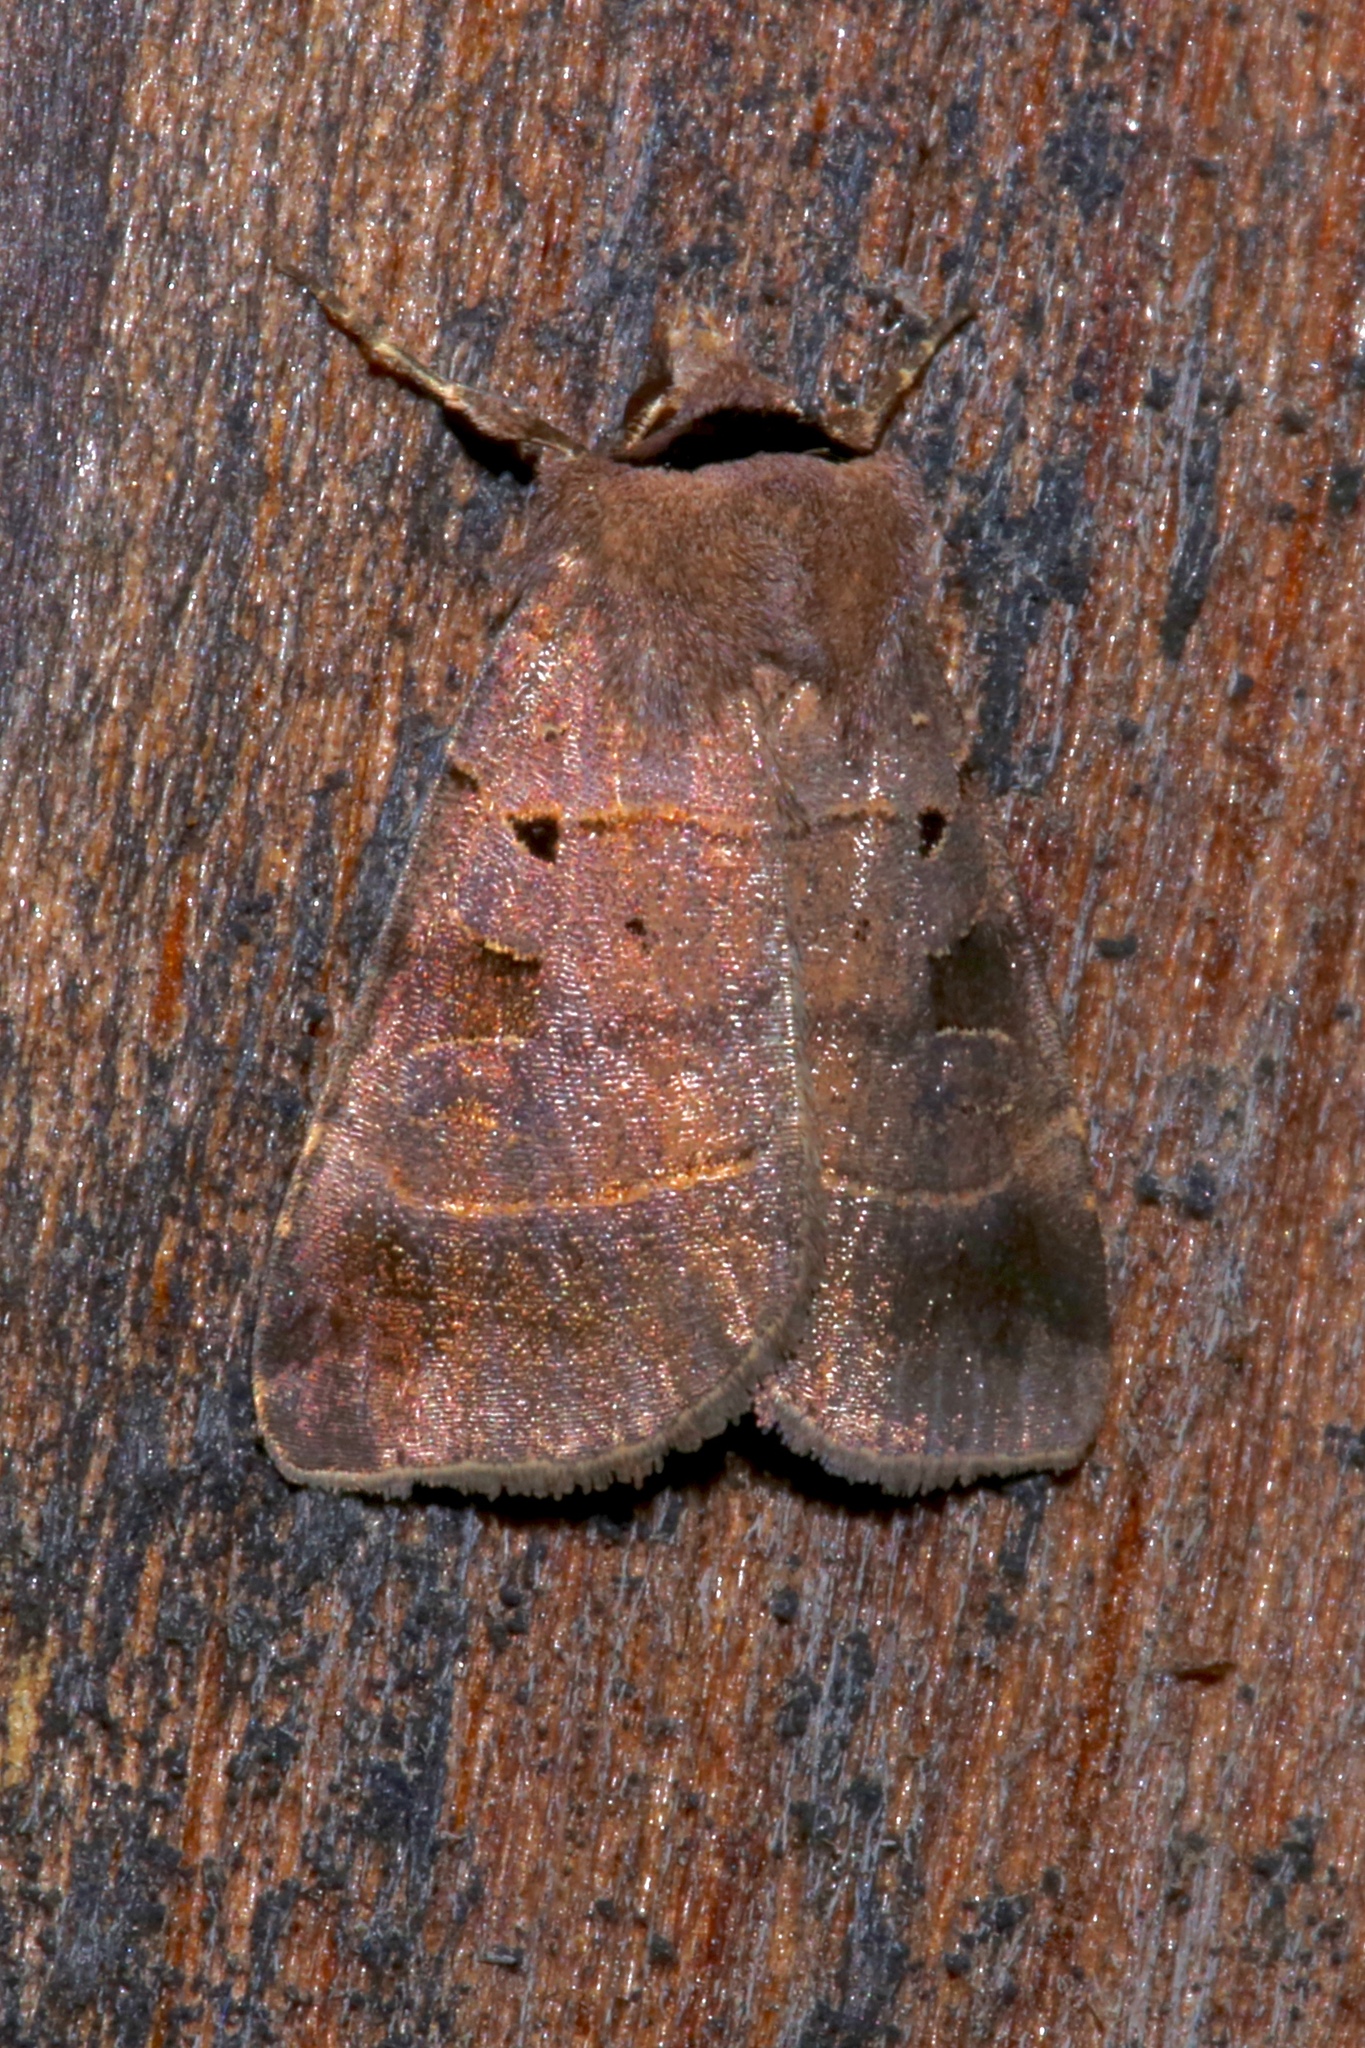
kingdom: Animalia
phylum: Arthropoda
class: Insecta
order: Lepidoptera
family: Noctuidae
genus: Agnorisma
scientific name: Agnorisma badinodis
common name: Pale-banded dart
